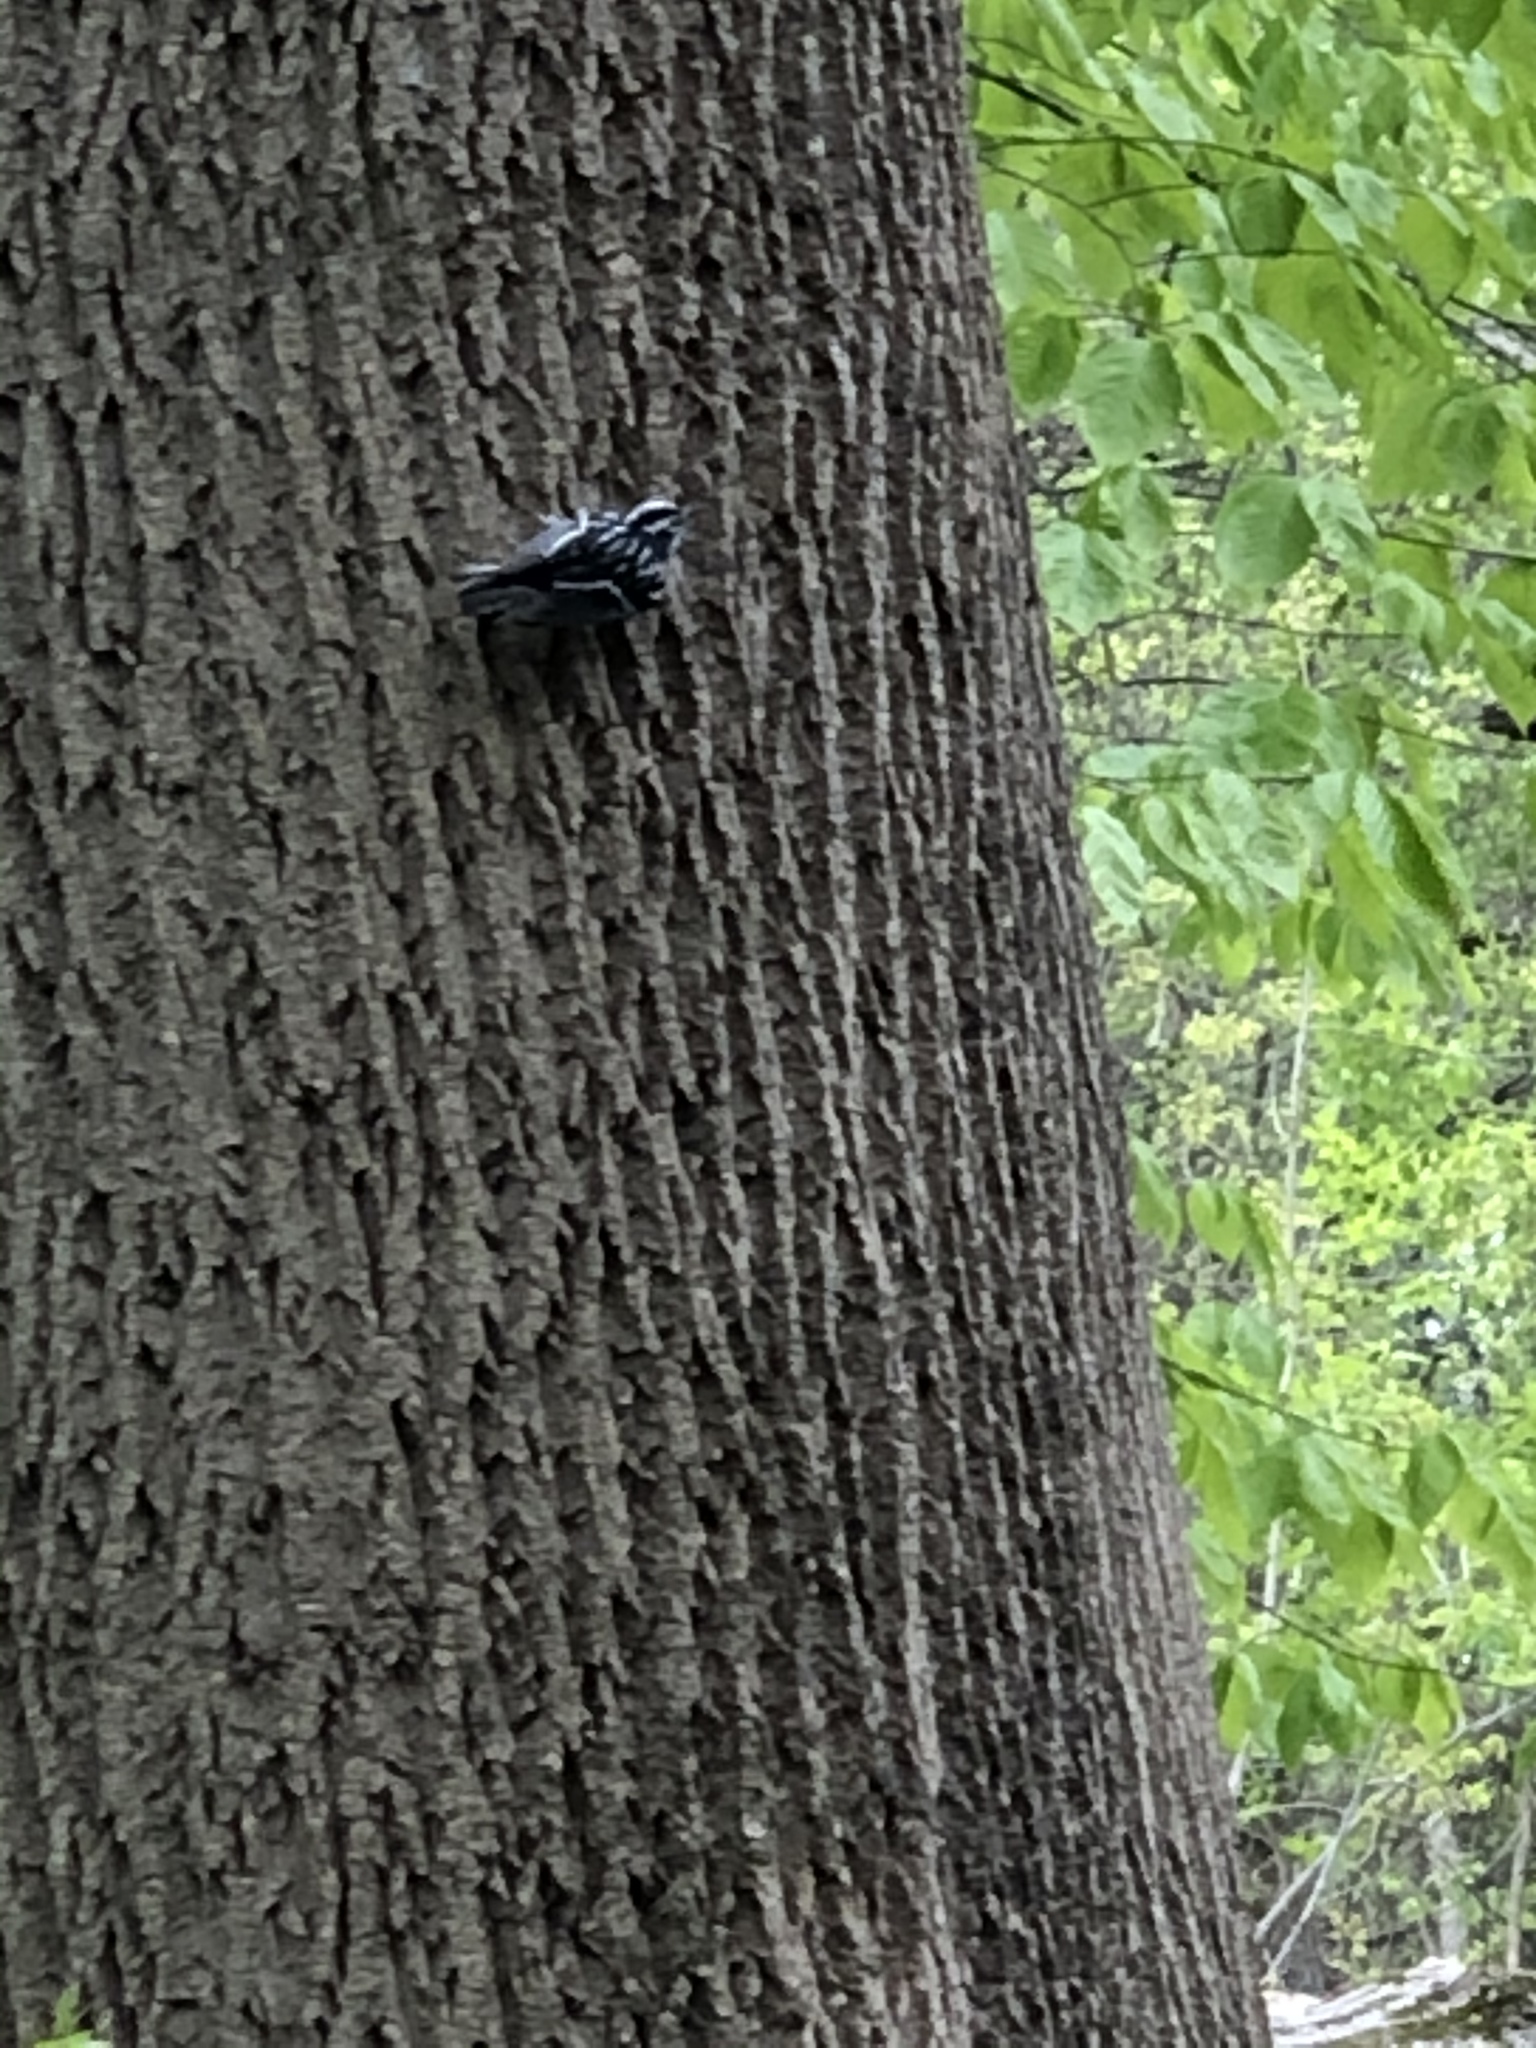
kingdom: Animalia
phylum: Chordata
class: Aves
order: Passeriformes
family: Parulidae
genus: Mniotilta
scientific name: Mniotilta varia
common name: Black-and-white warbler
